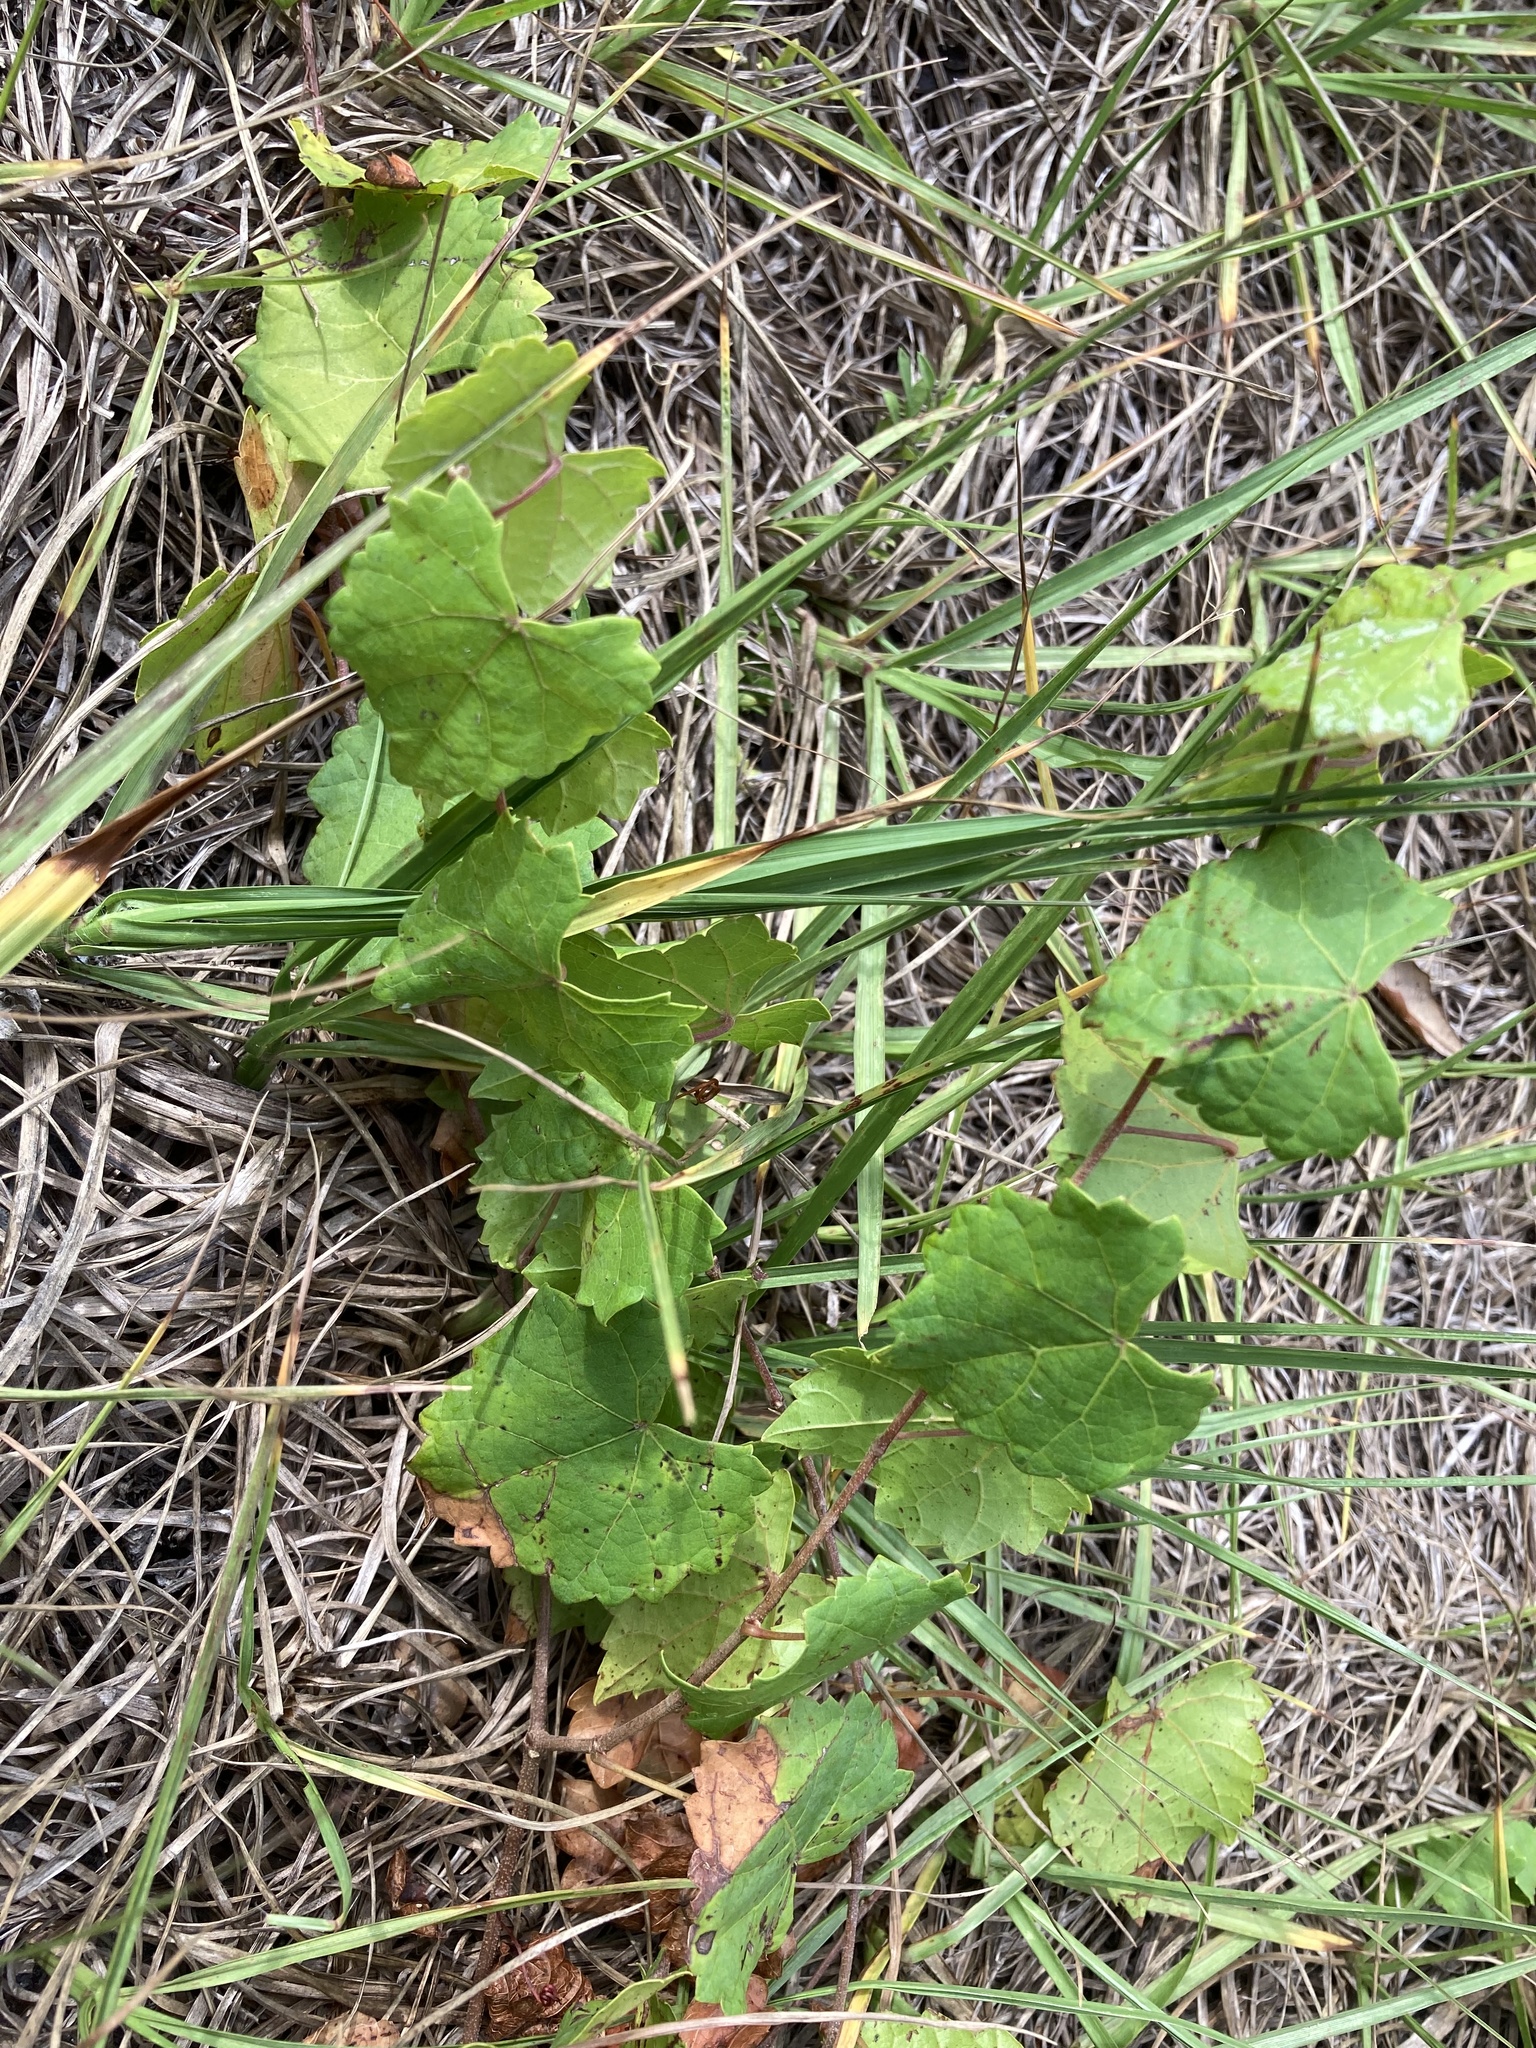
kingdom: Plantae
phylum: Tracheophyta
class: Magnoliopsida
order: Vitales
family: Vitaceae
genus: Vitis
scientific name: Vitis rotundifolia
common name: Muscadine grape
